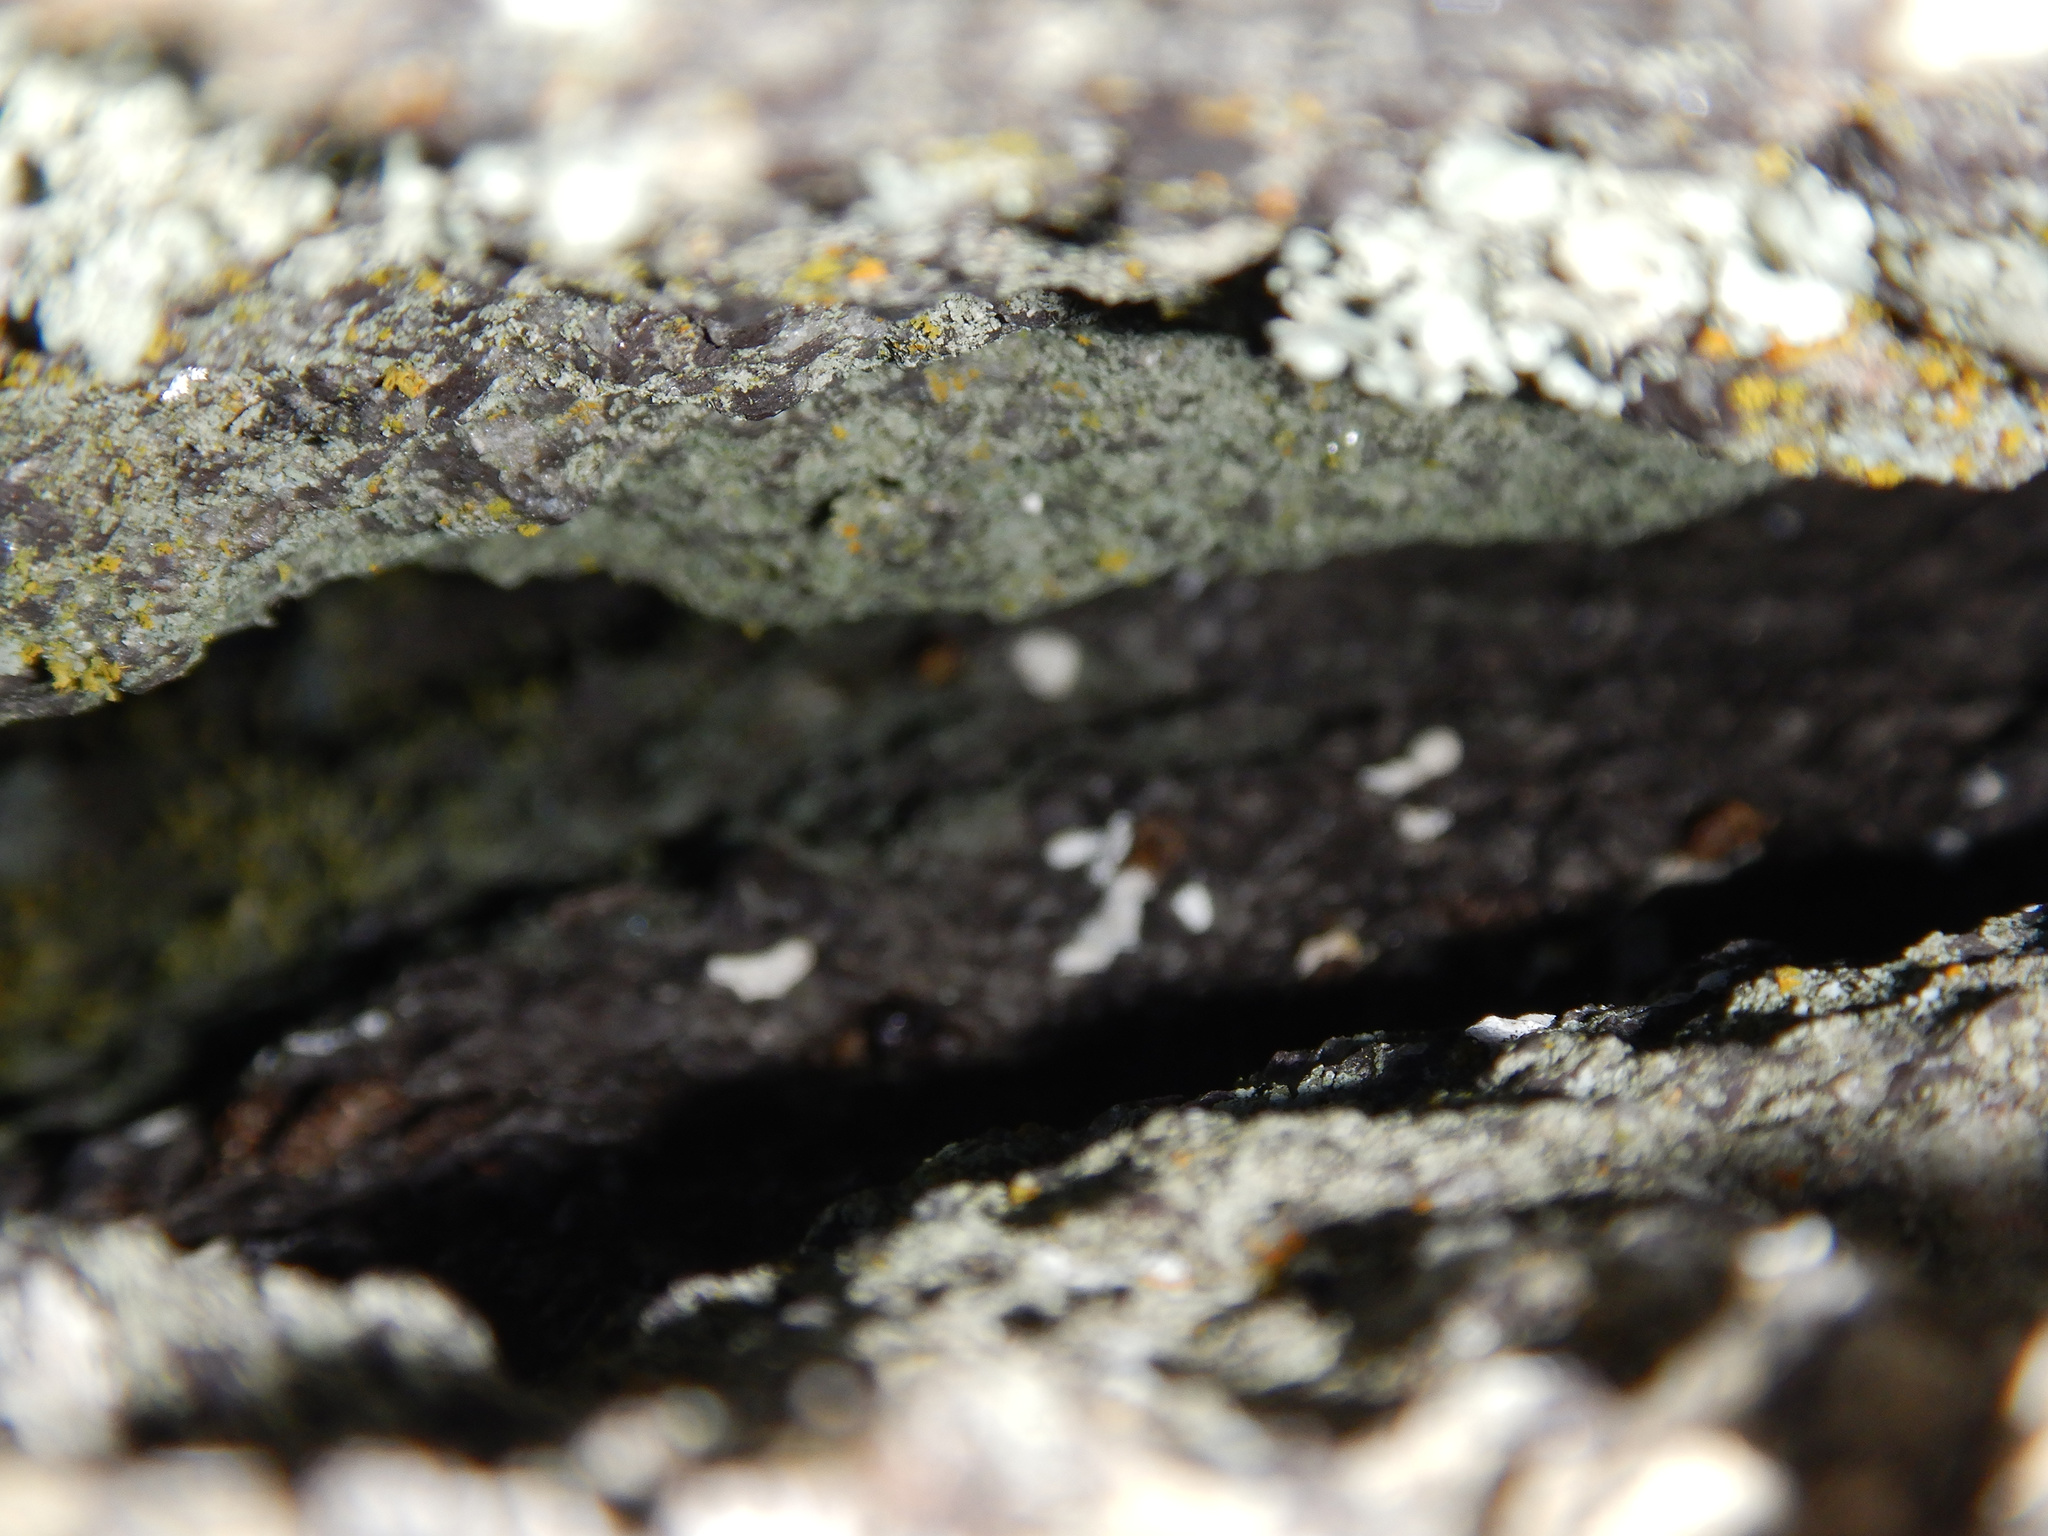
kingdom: Animalia
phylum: Chordata
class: Squamata
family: Diplodactylidae
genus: Woodworthia
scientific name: Woodworthia brunnea
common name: Canterbury gecko
